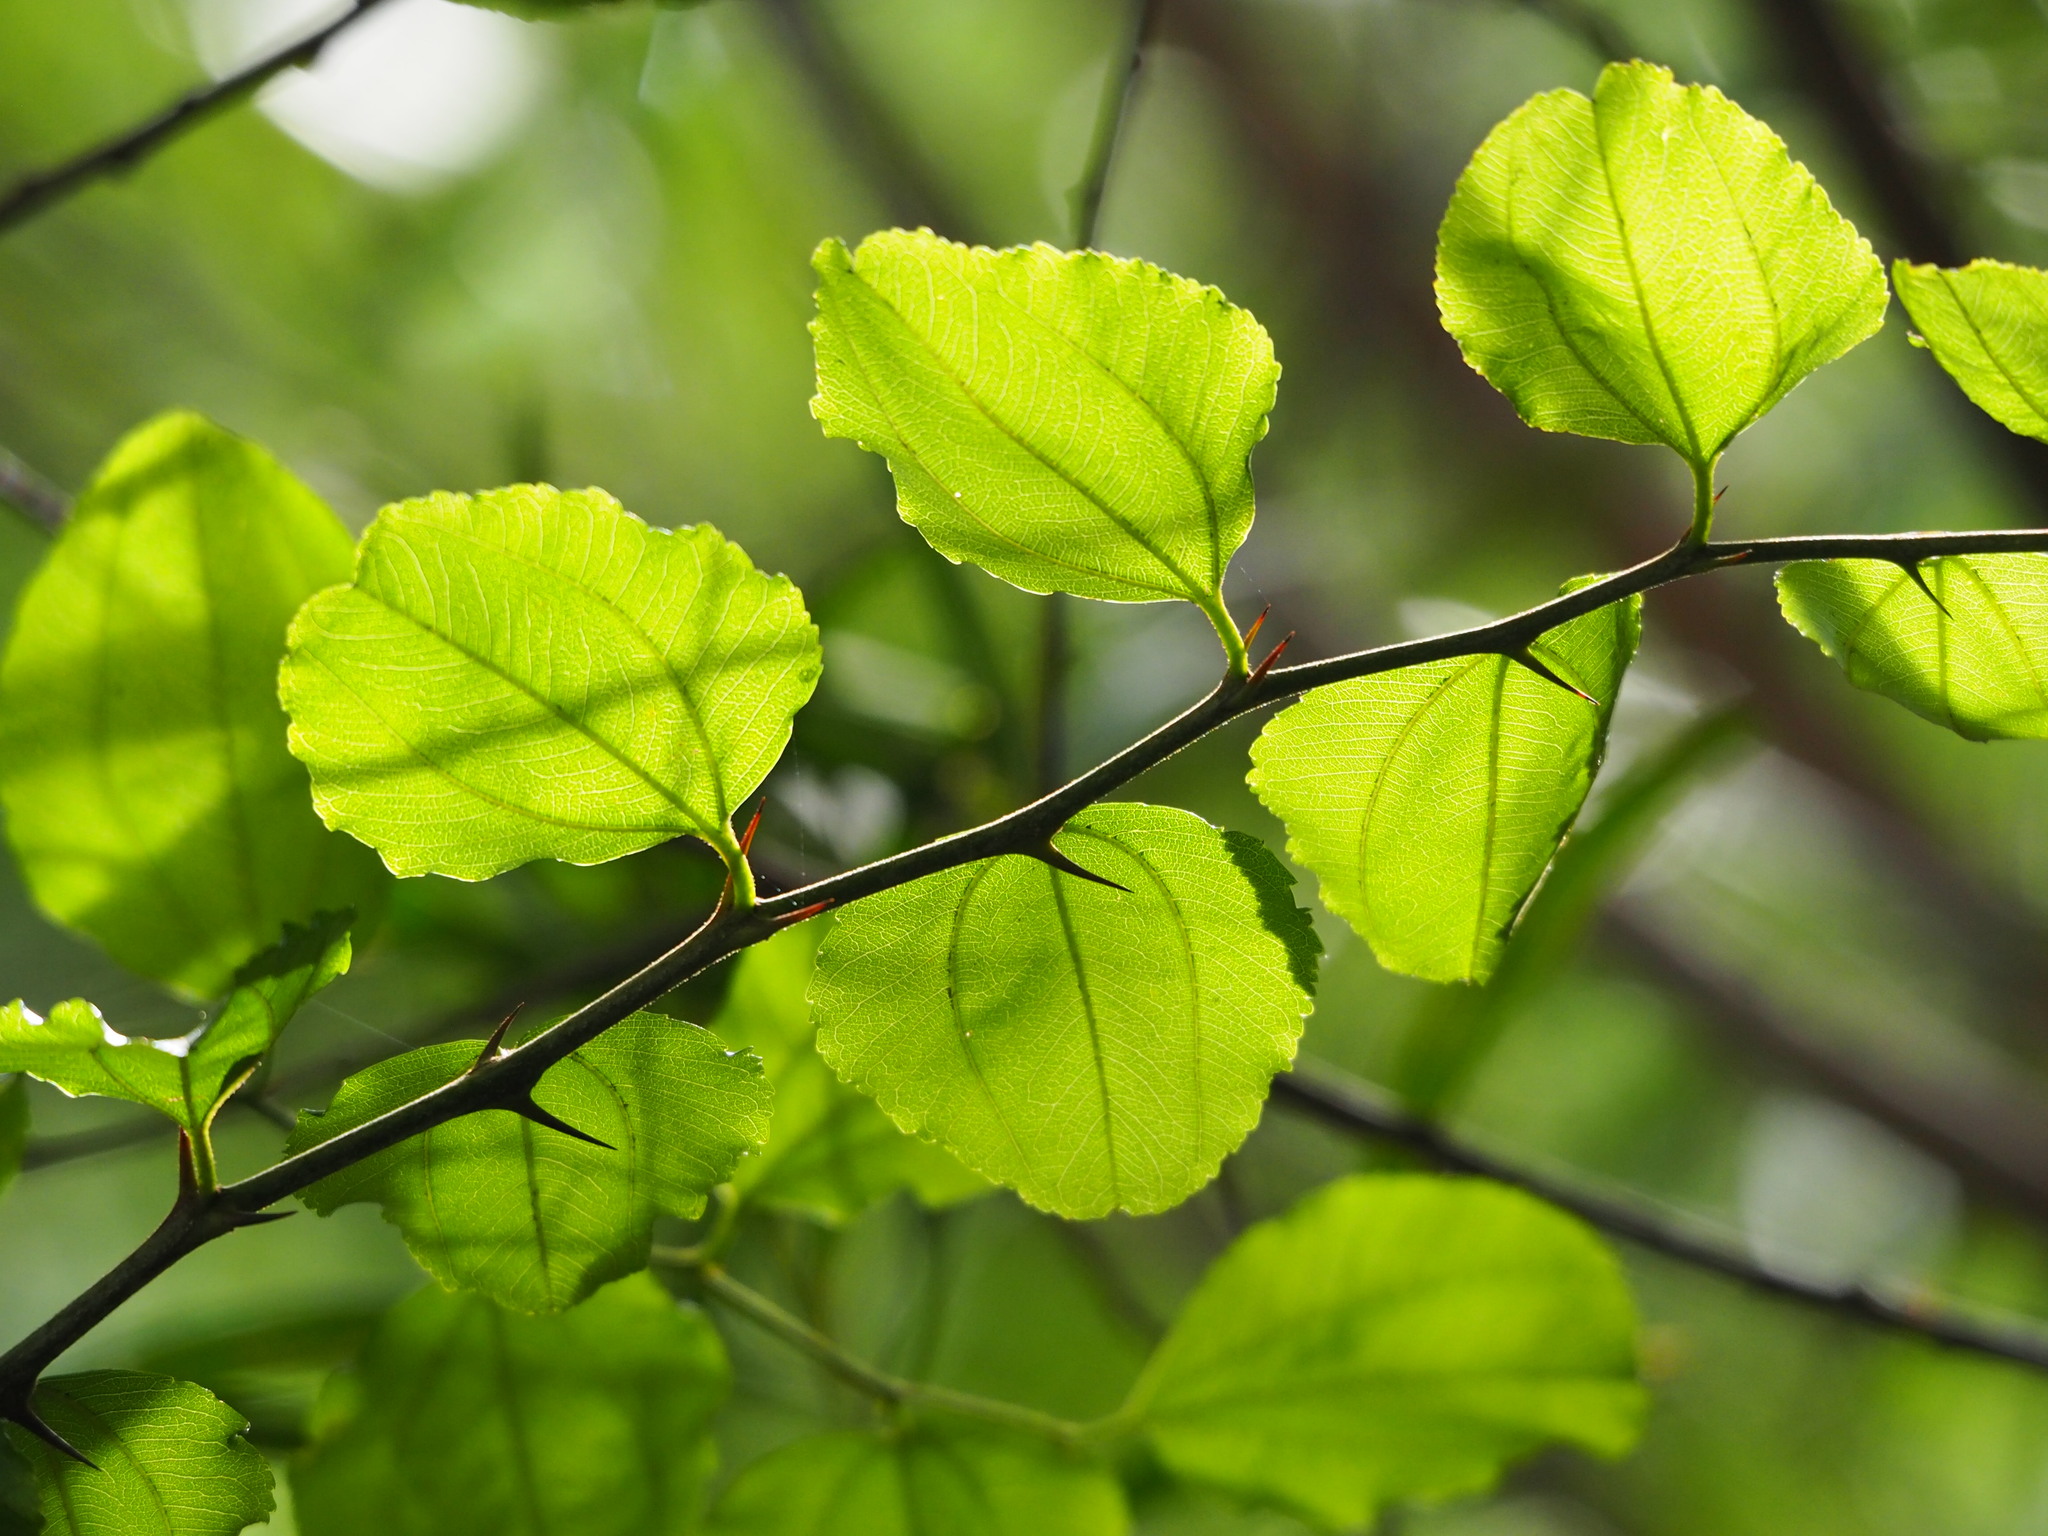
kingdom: Plantae
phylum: Tracheophyta
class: Magnoliopsida
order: Rosales
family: Rhamnaceae
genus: Paliurus
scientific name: Paliurus ramosissimus
